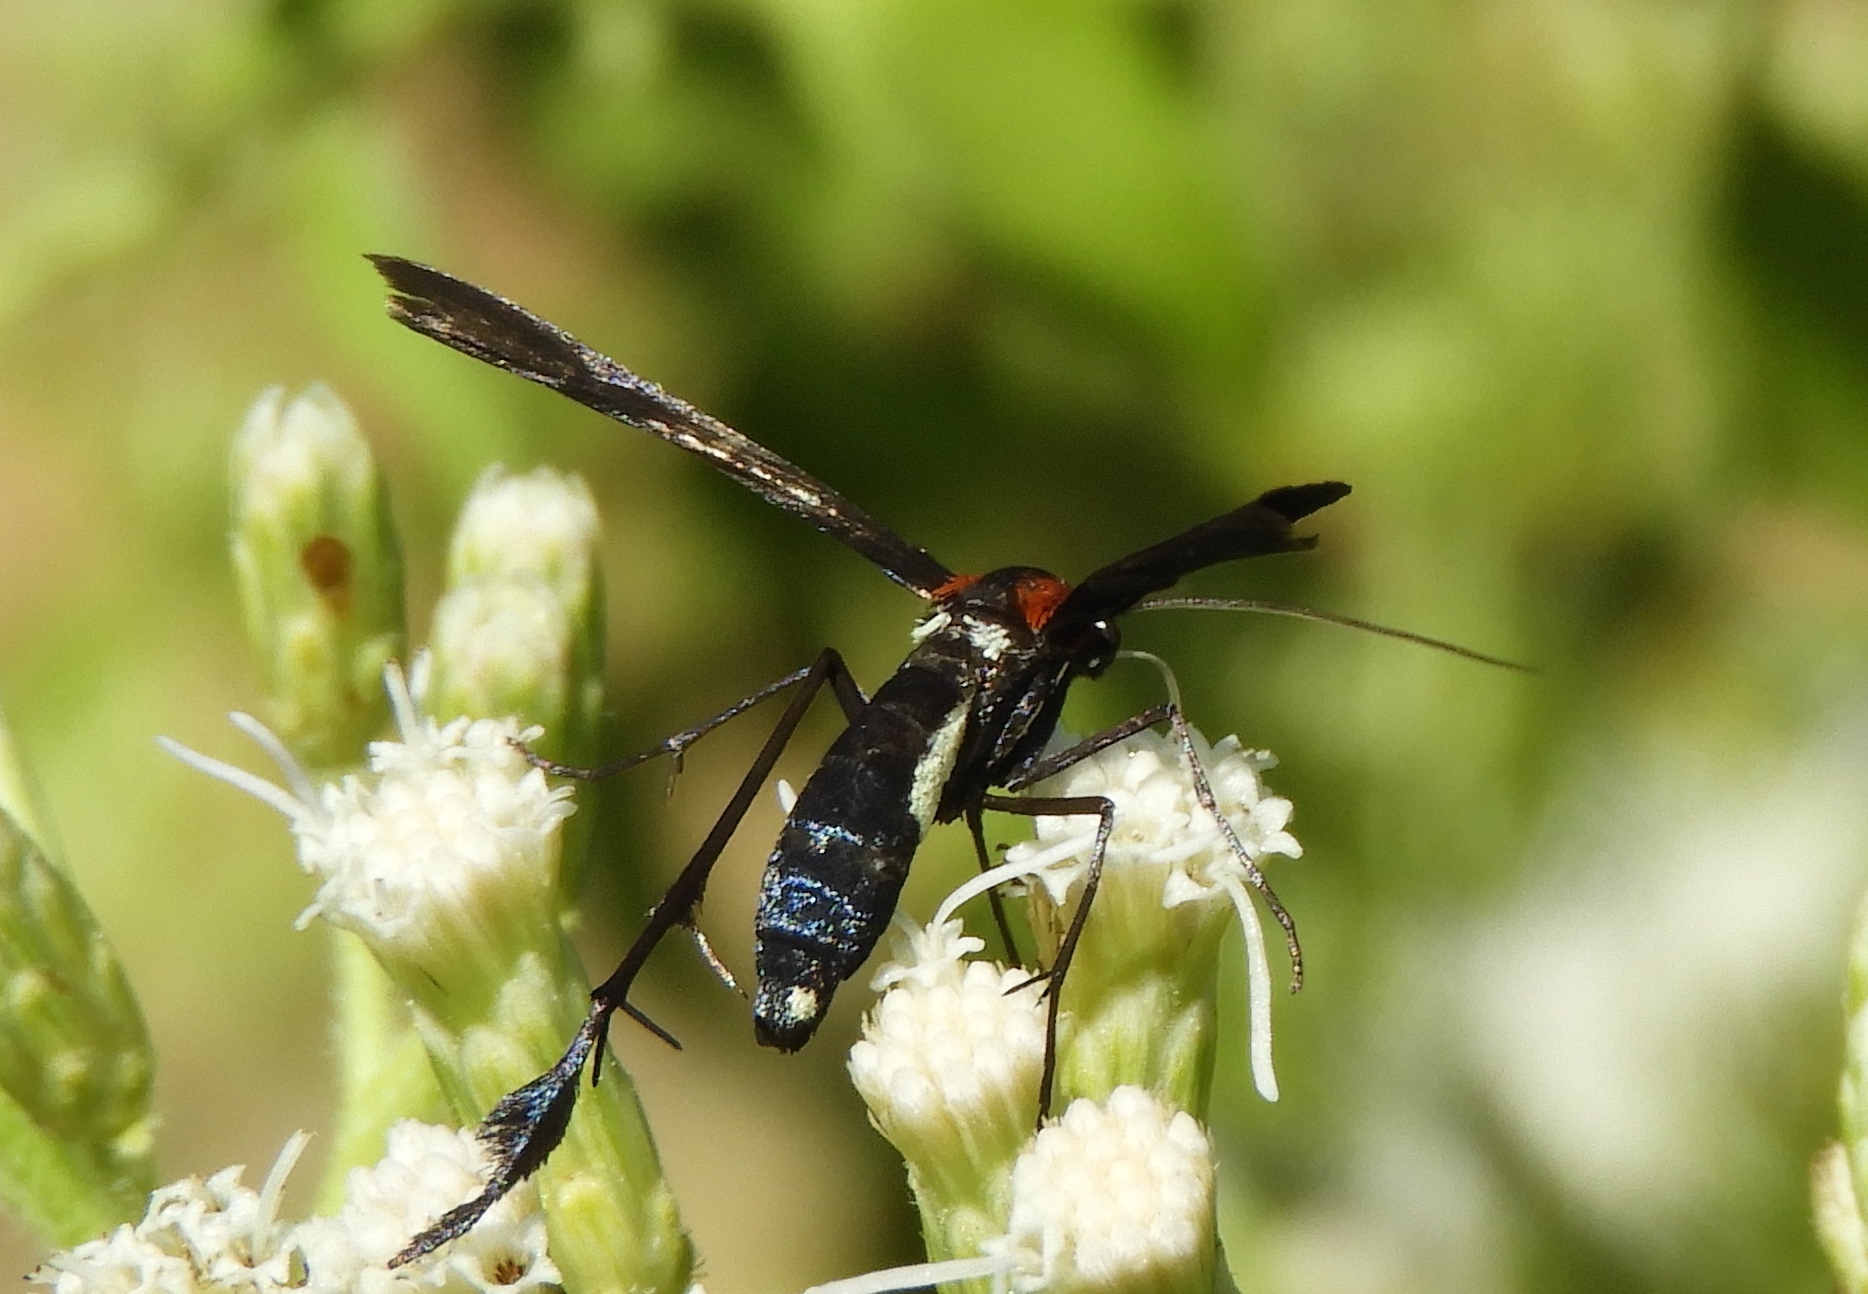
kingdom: Animalia
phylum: Arthropoda
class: Insecta
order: Lepidoptera
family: Pterophoridae
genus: Hellinsia
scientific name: Hellinsia chamelai
